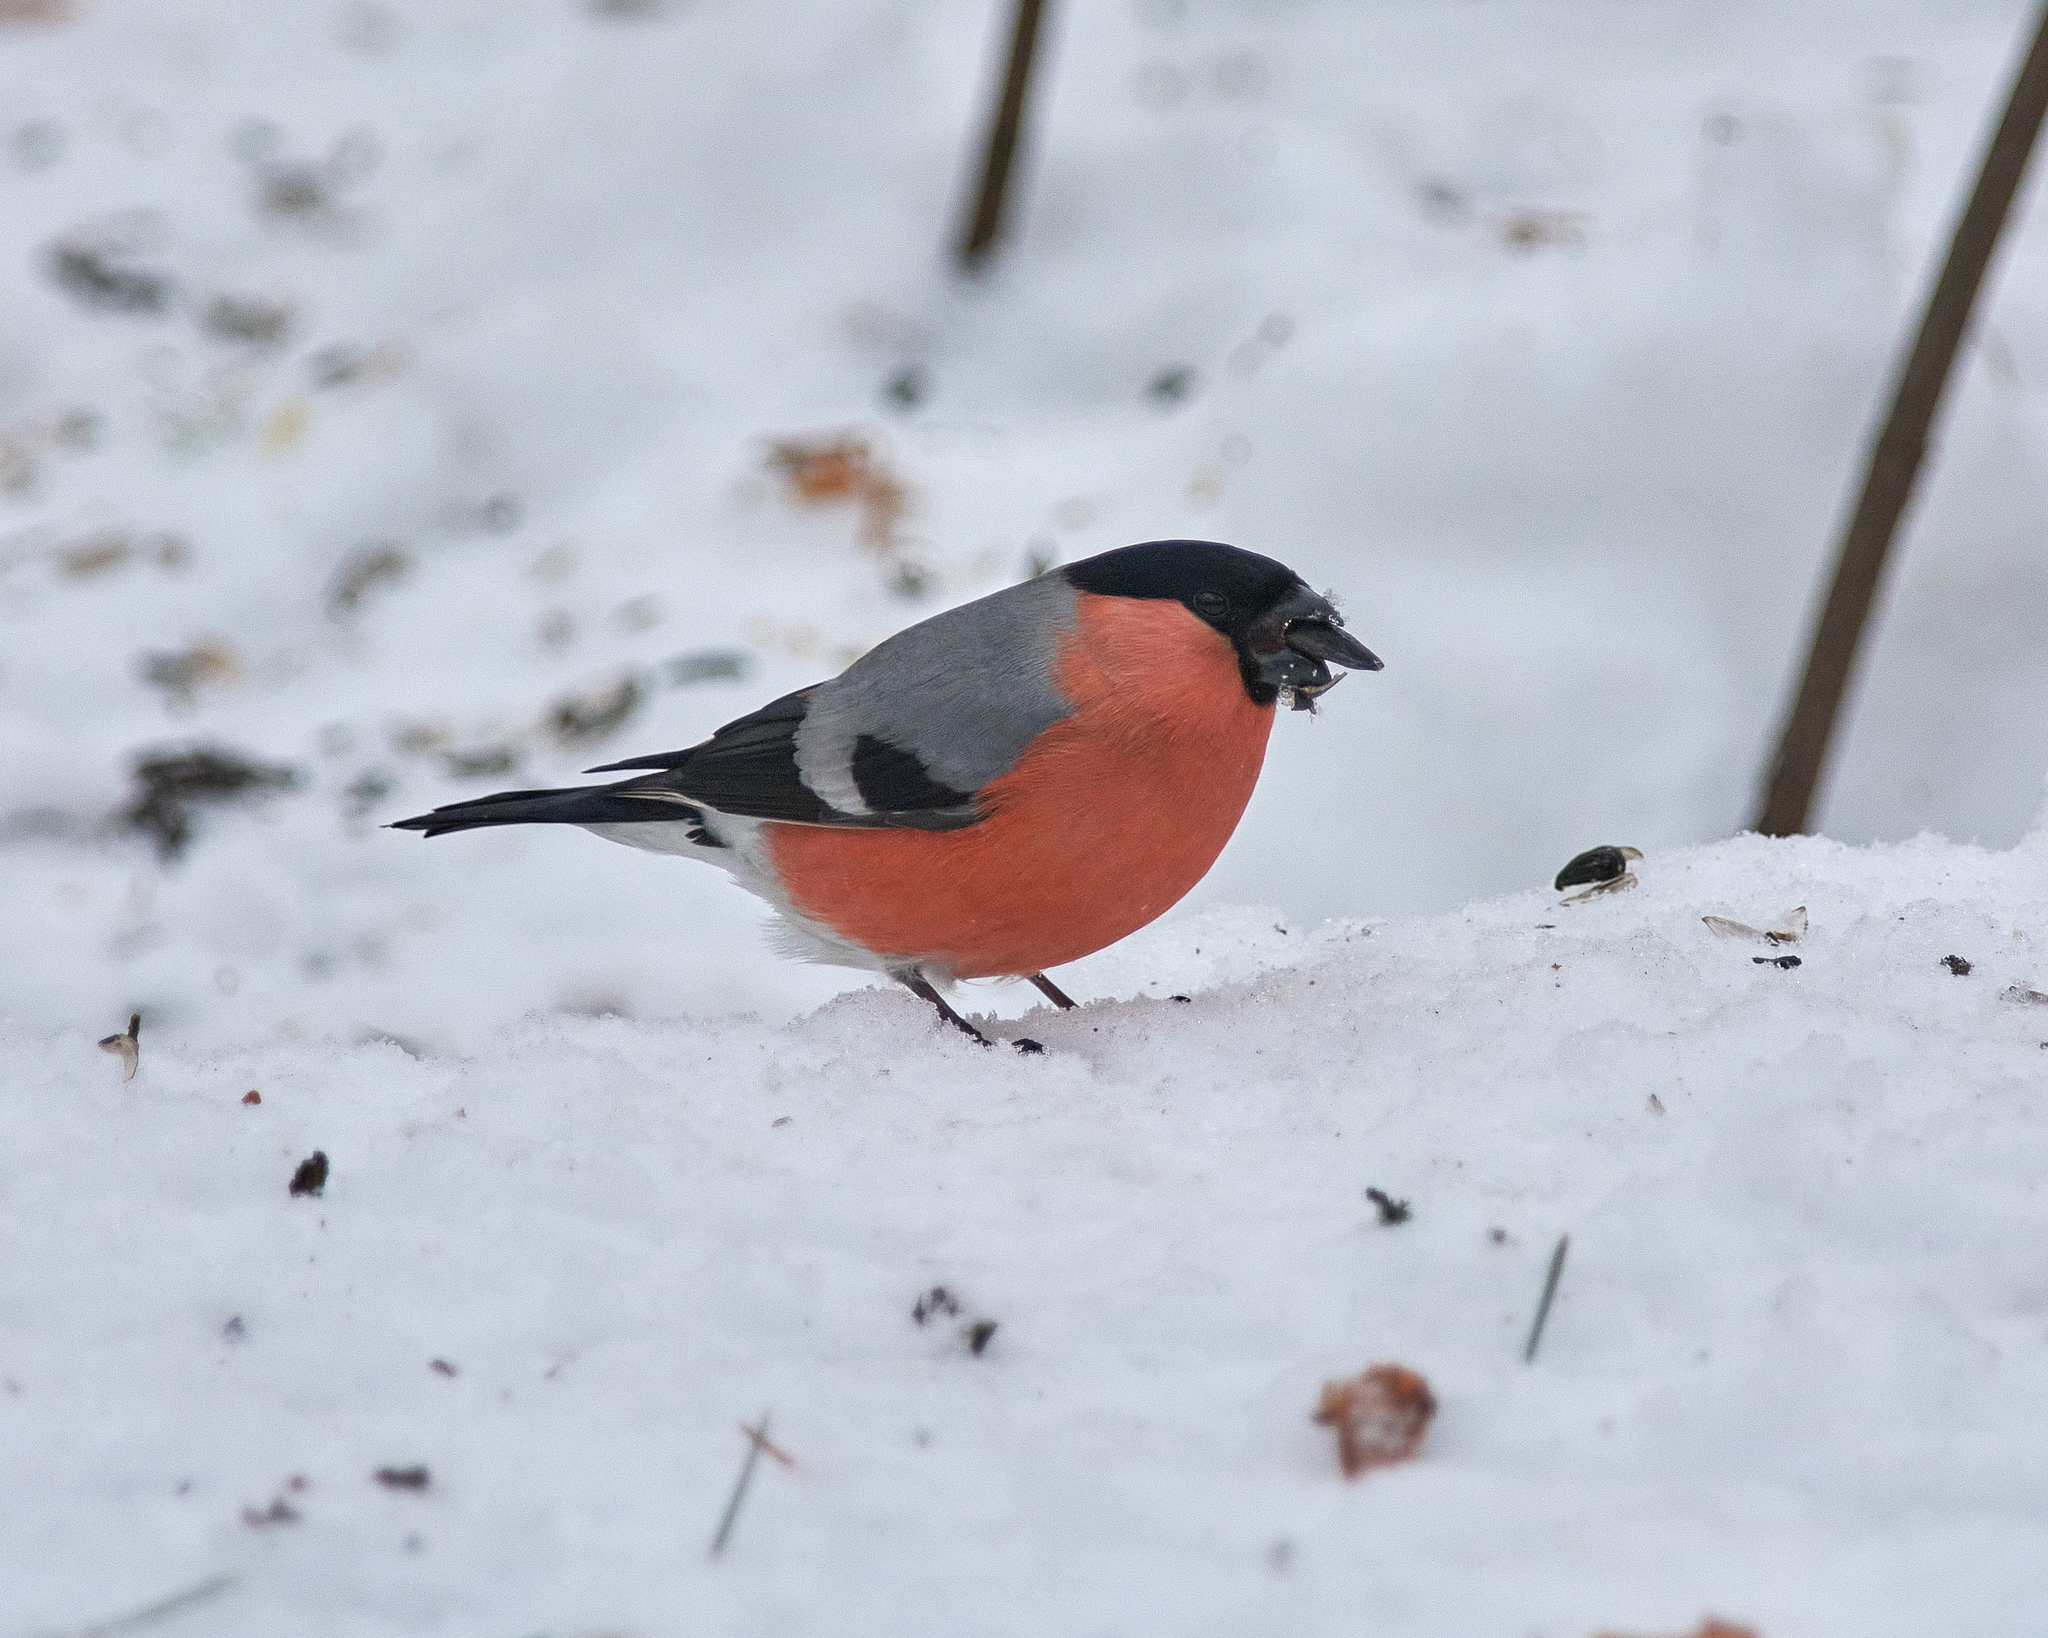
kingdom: Animalia
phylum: Chordata
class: Aves
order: Passeriformes
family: Fringillidae
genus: Pyrrhula
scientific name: Pyrrhula pyrrhula
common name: Eurasian bullfinch
